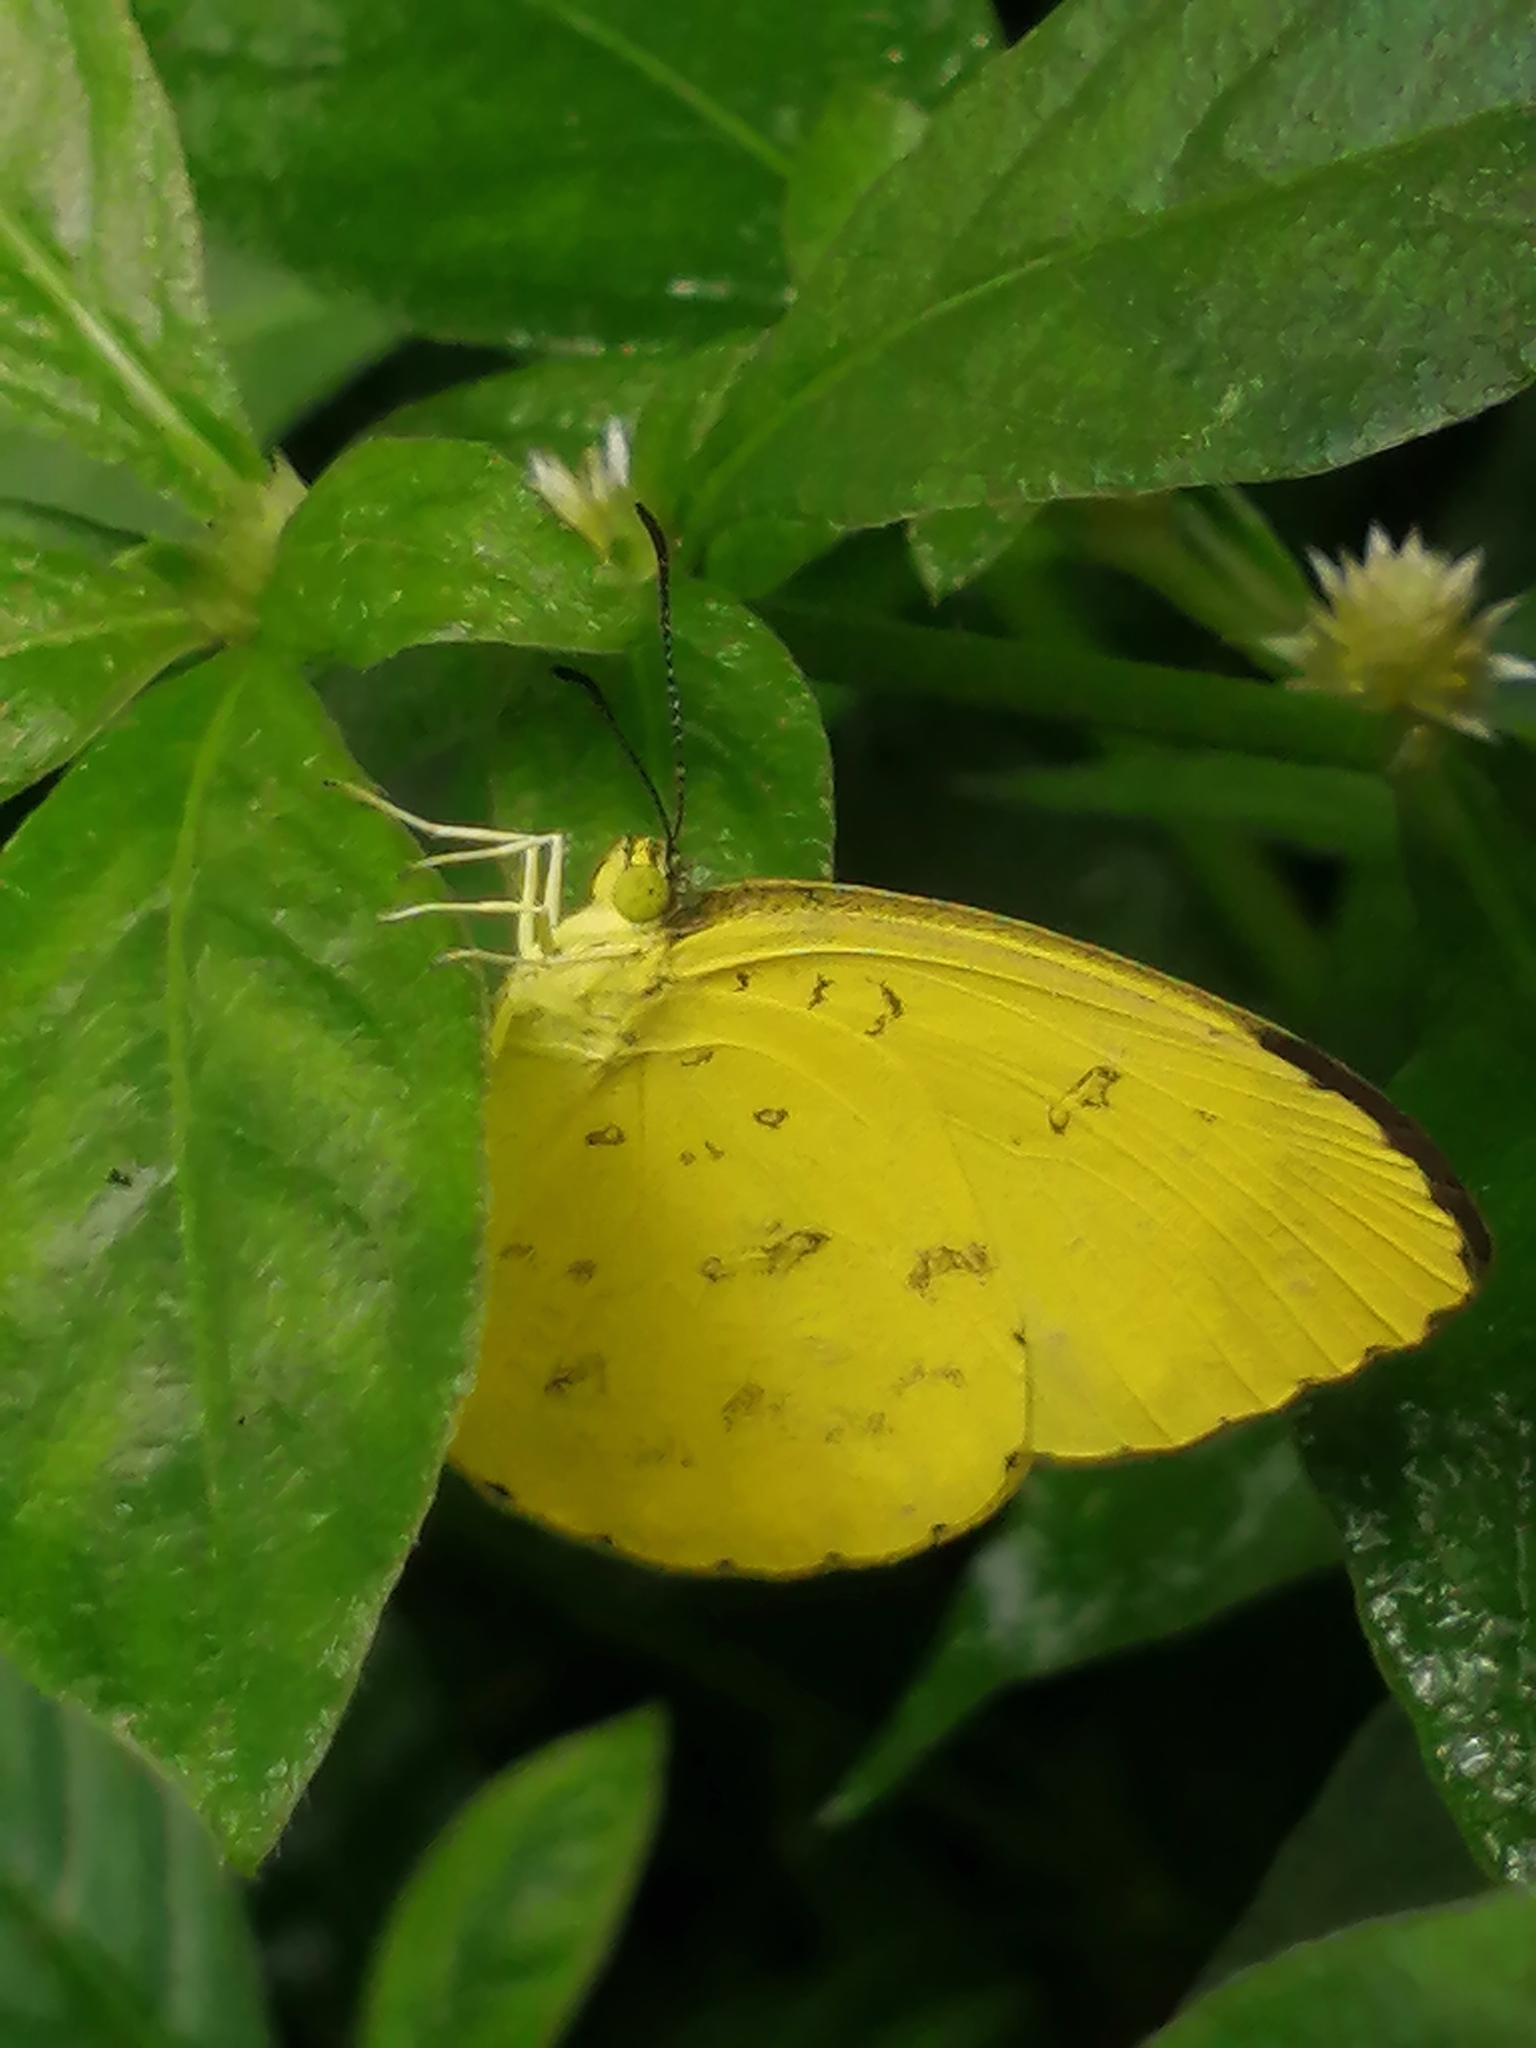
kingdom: Animalia
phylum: Arthropoda
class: Insecta
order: Lepidoptera
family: Pieridae
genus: Eurema
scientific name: Eurema blanda
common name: Three-spot grass yellow
